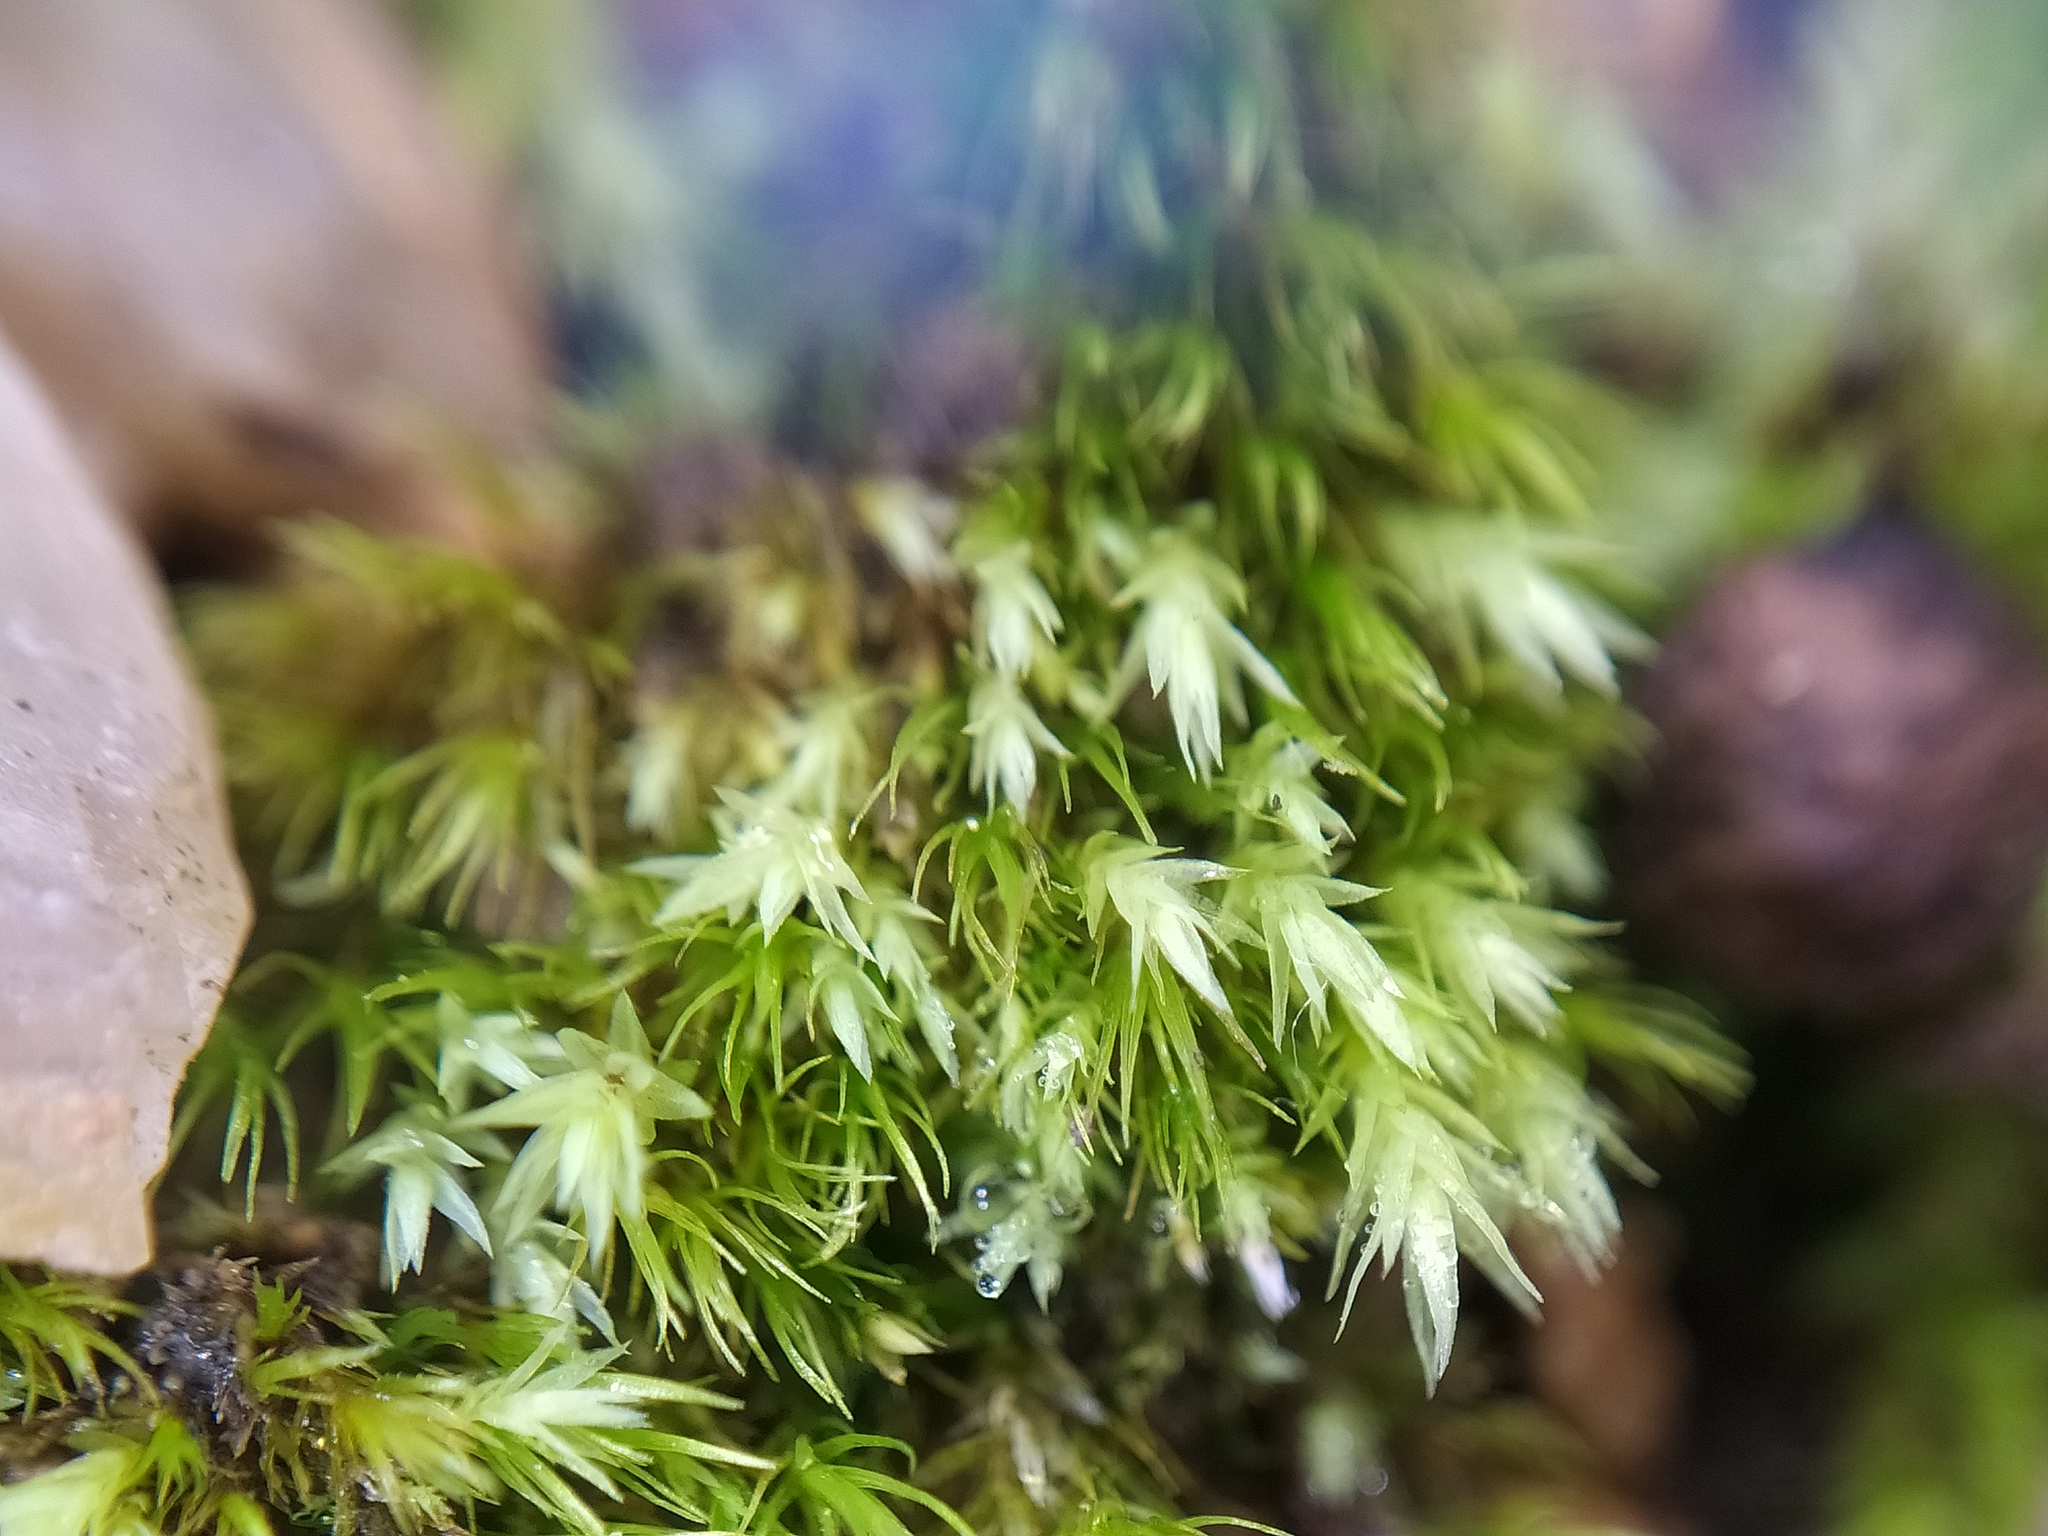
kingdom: Plantae
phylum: Bryophyta
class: Bryopsida
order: Bryales
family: Mniaceae
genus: Pohlia
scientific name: Pohlia lutescens
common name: Yellow thread-moss
